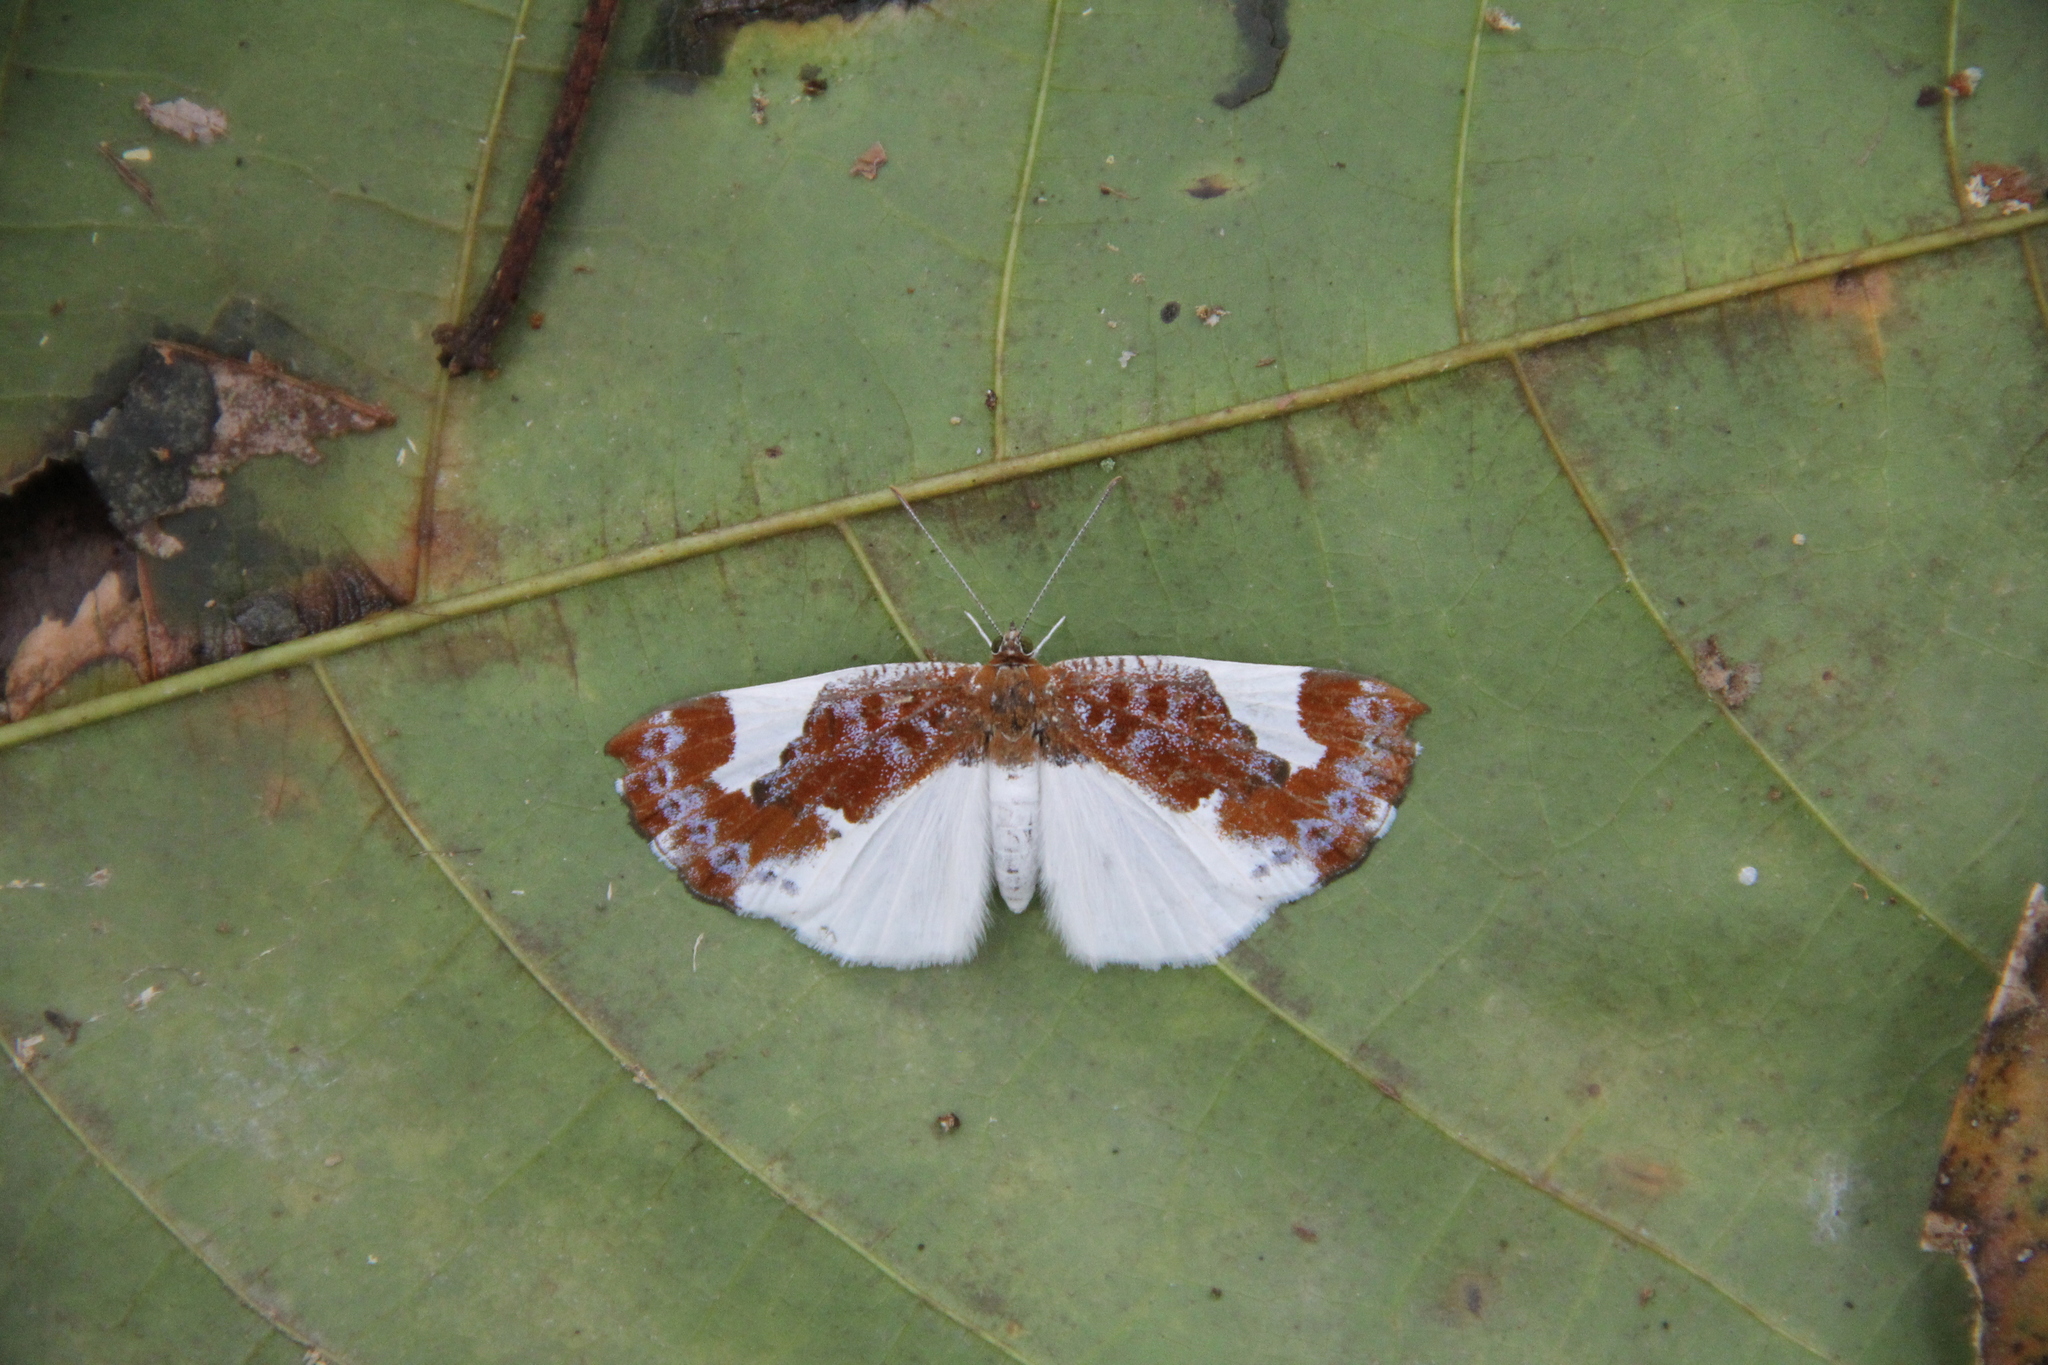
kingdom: Animalia
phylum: Arthropoda
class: Insecta
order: Lepidoptera
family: Riodinidae
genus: Behemothia
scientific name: Behemothia
